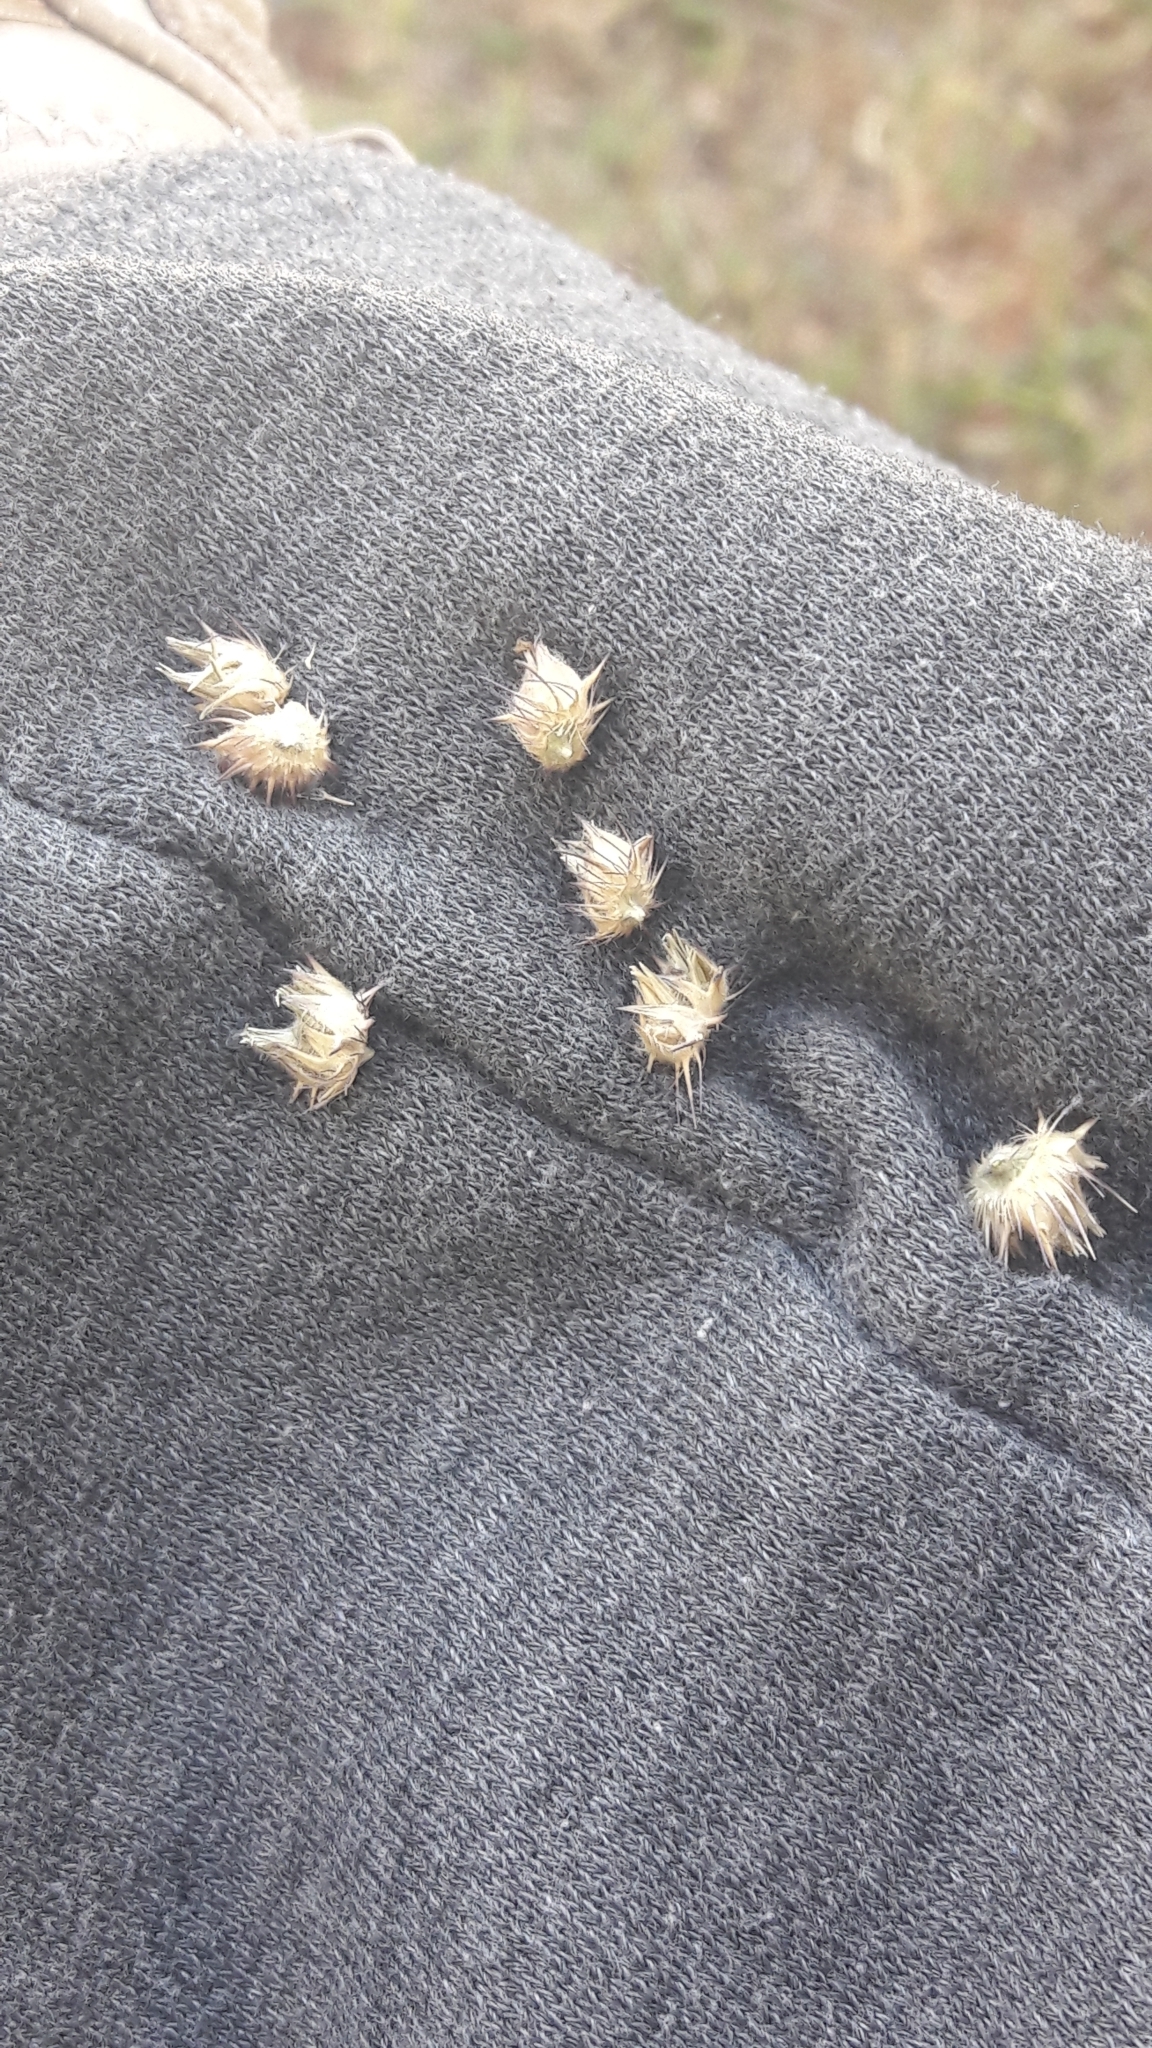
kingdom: Plantae
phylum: Tracheophyta
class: Liliopsida
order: Poales
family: Poaceae
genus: Cenchrus
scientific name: Cenchrus echinatus
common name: Southern sandbur
